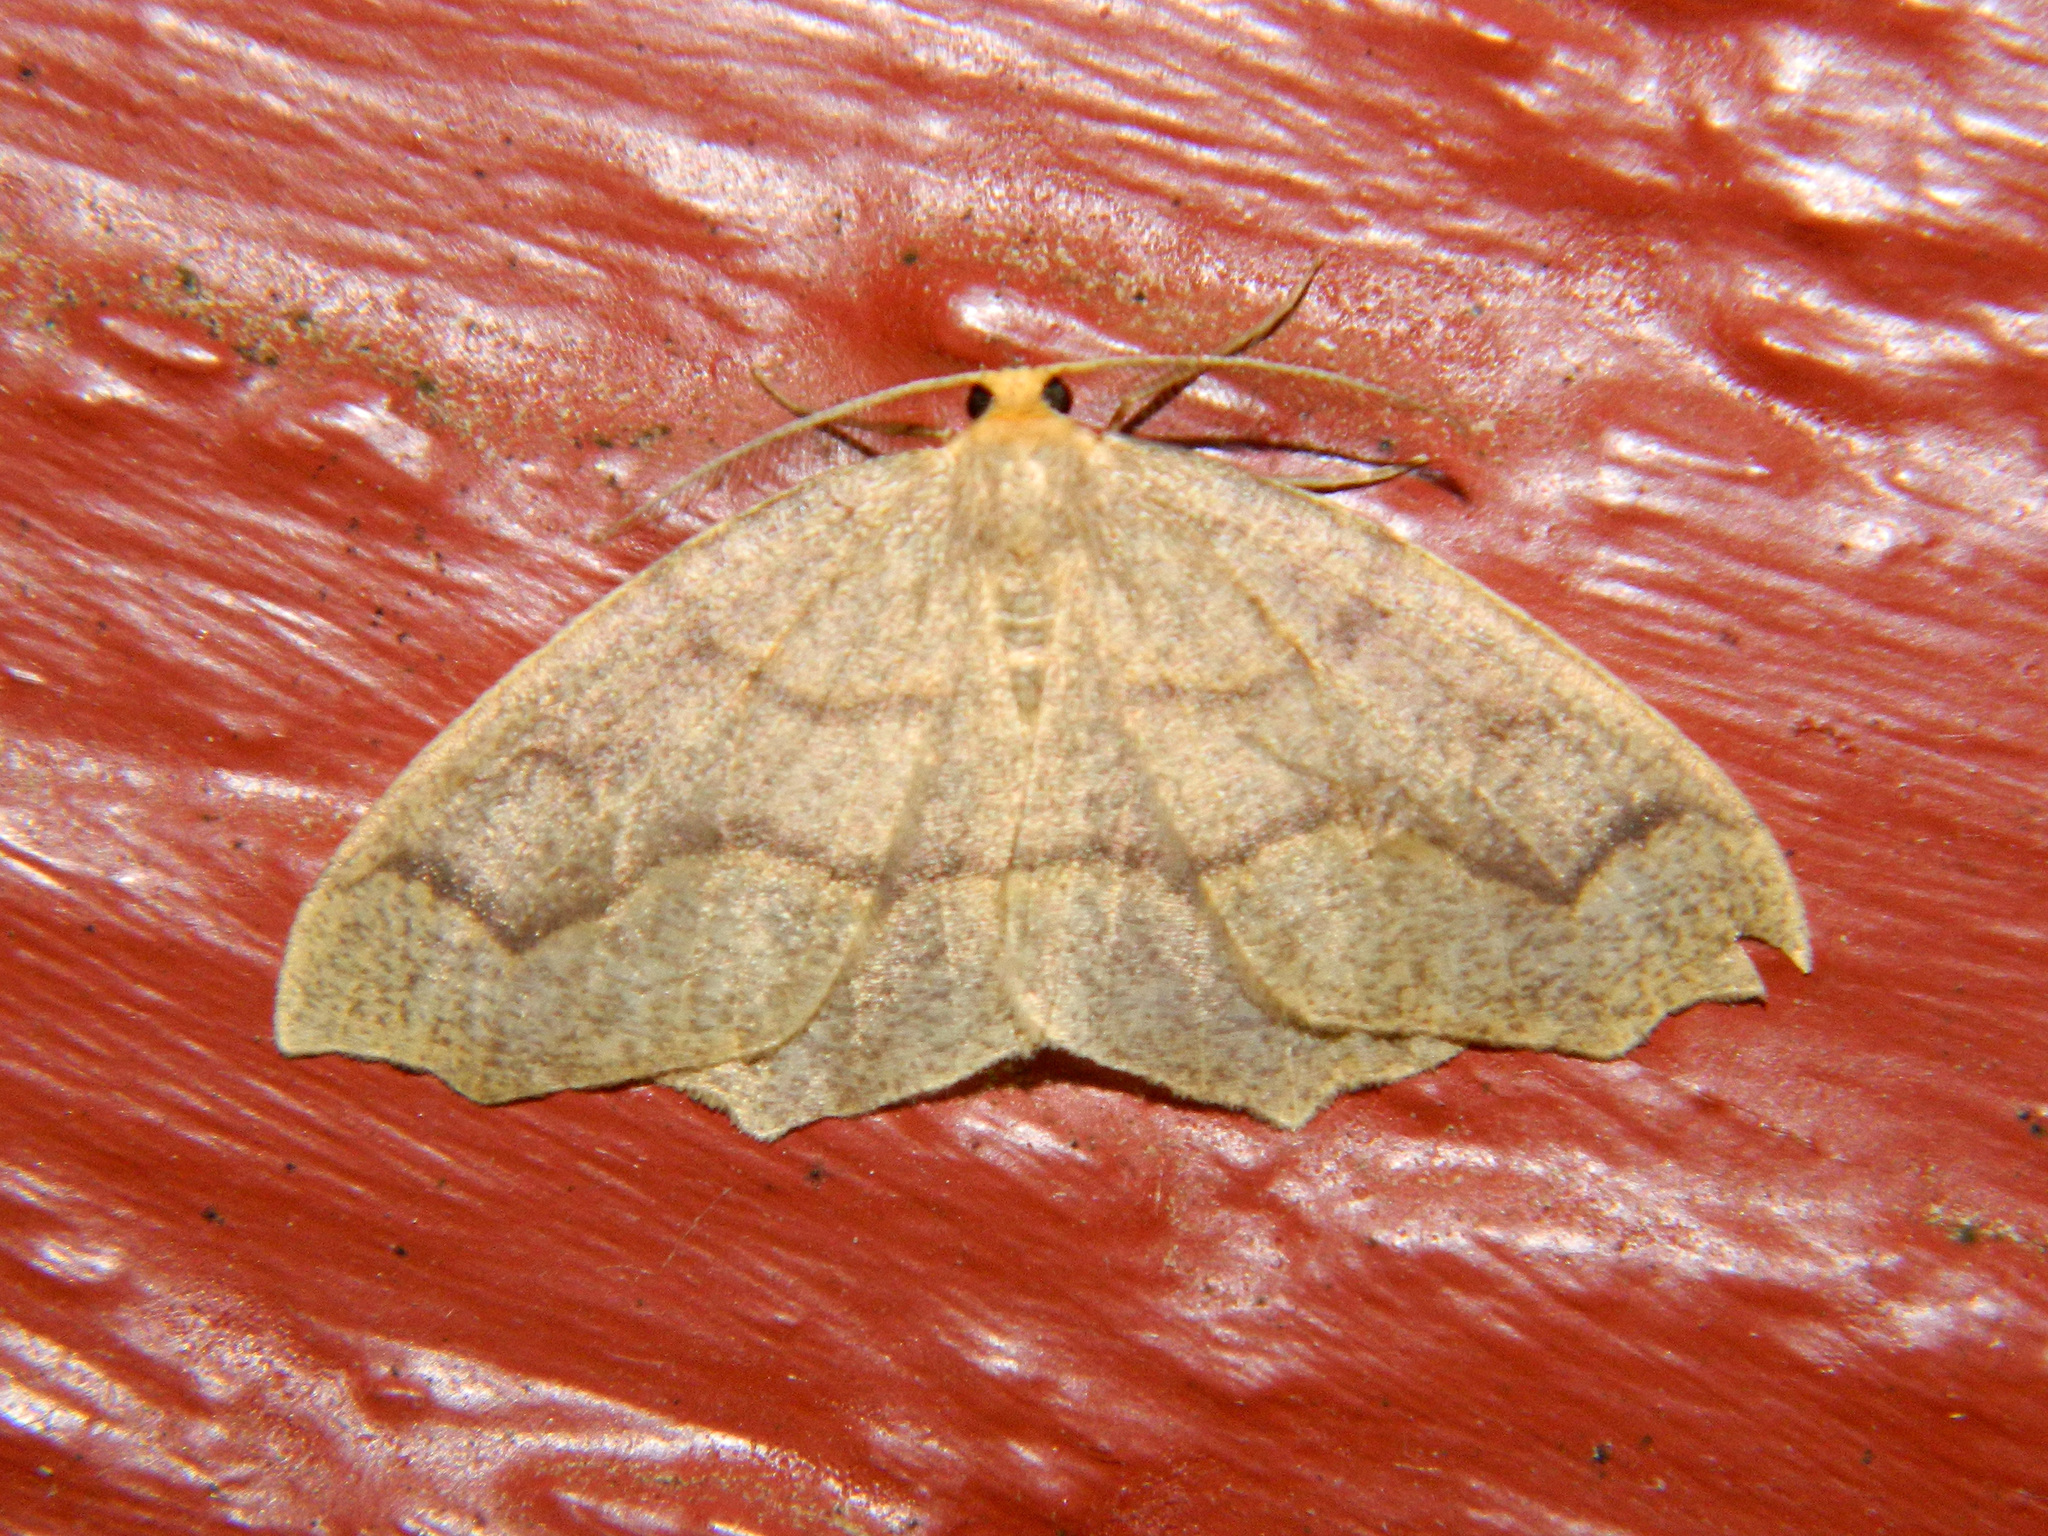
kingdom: Animalia
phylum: Arthropoda
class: Insecta
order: Lepidoptera
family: Geometridae
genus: Lambdina
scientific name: Lambdina fiscellaria
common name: Hemlock looper
